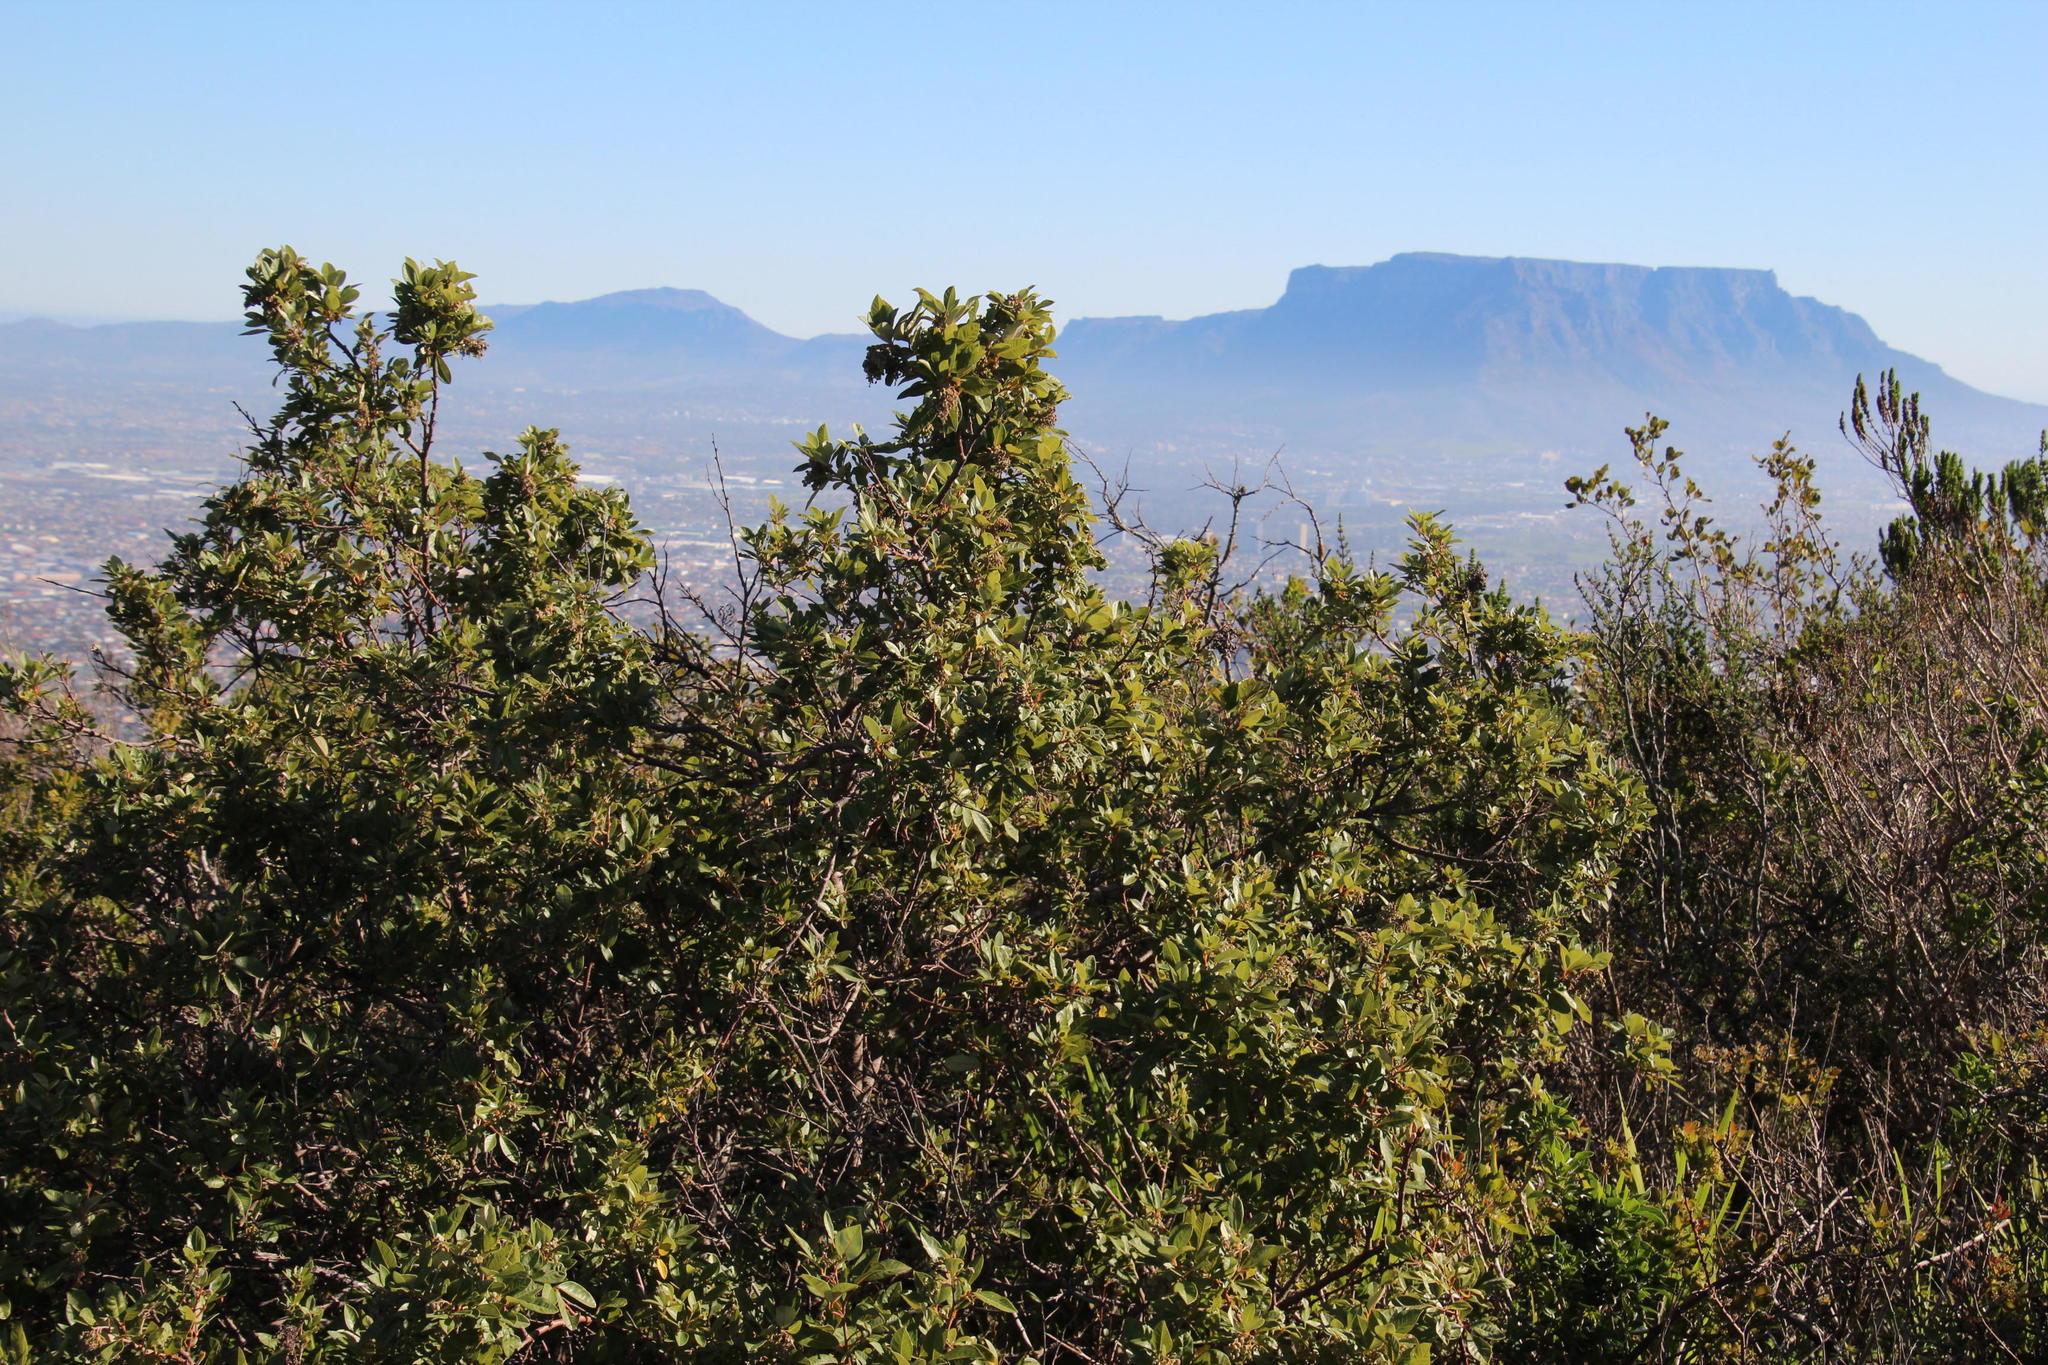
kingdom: Plantae
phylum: Tracheophyta
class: Magnoliopsida
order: Sapindales
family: Anacardiaceae
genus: Searsia
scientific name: Searsia tomentosa
